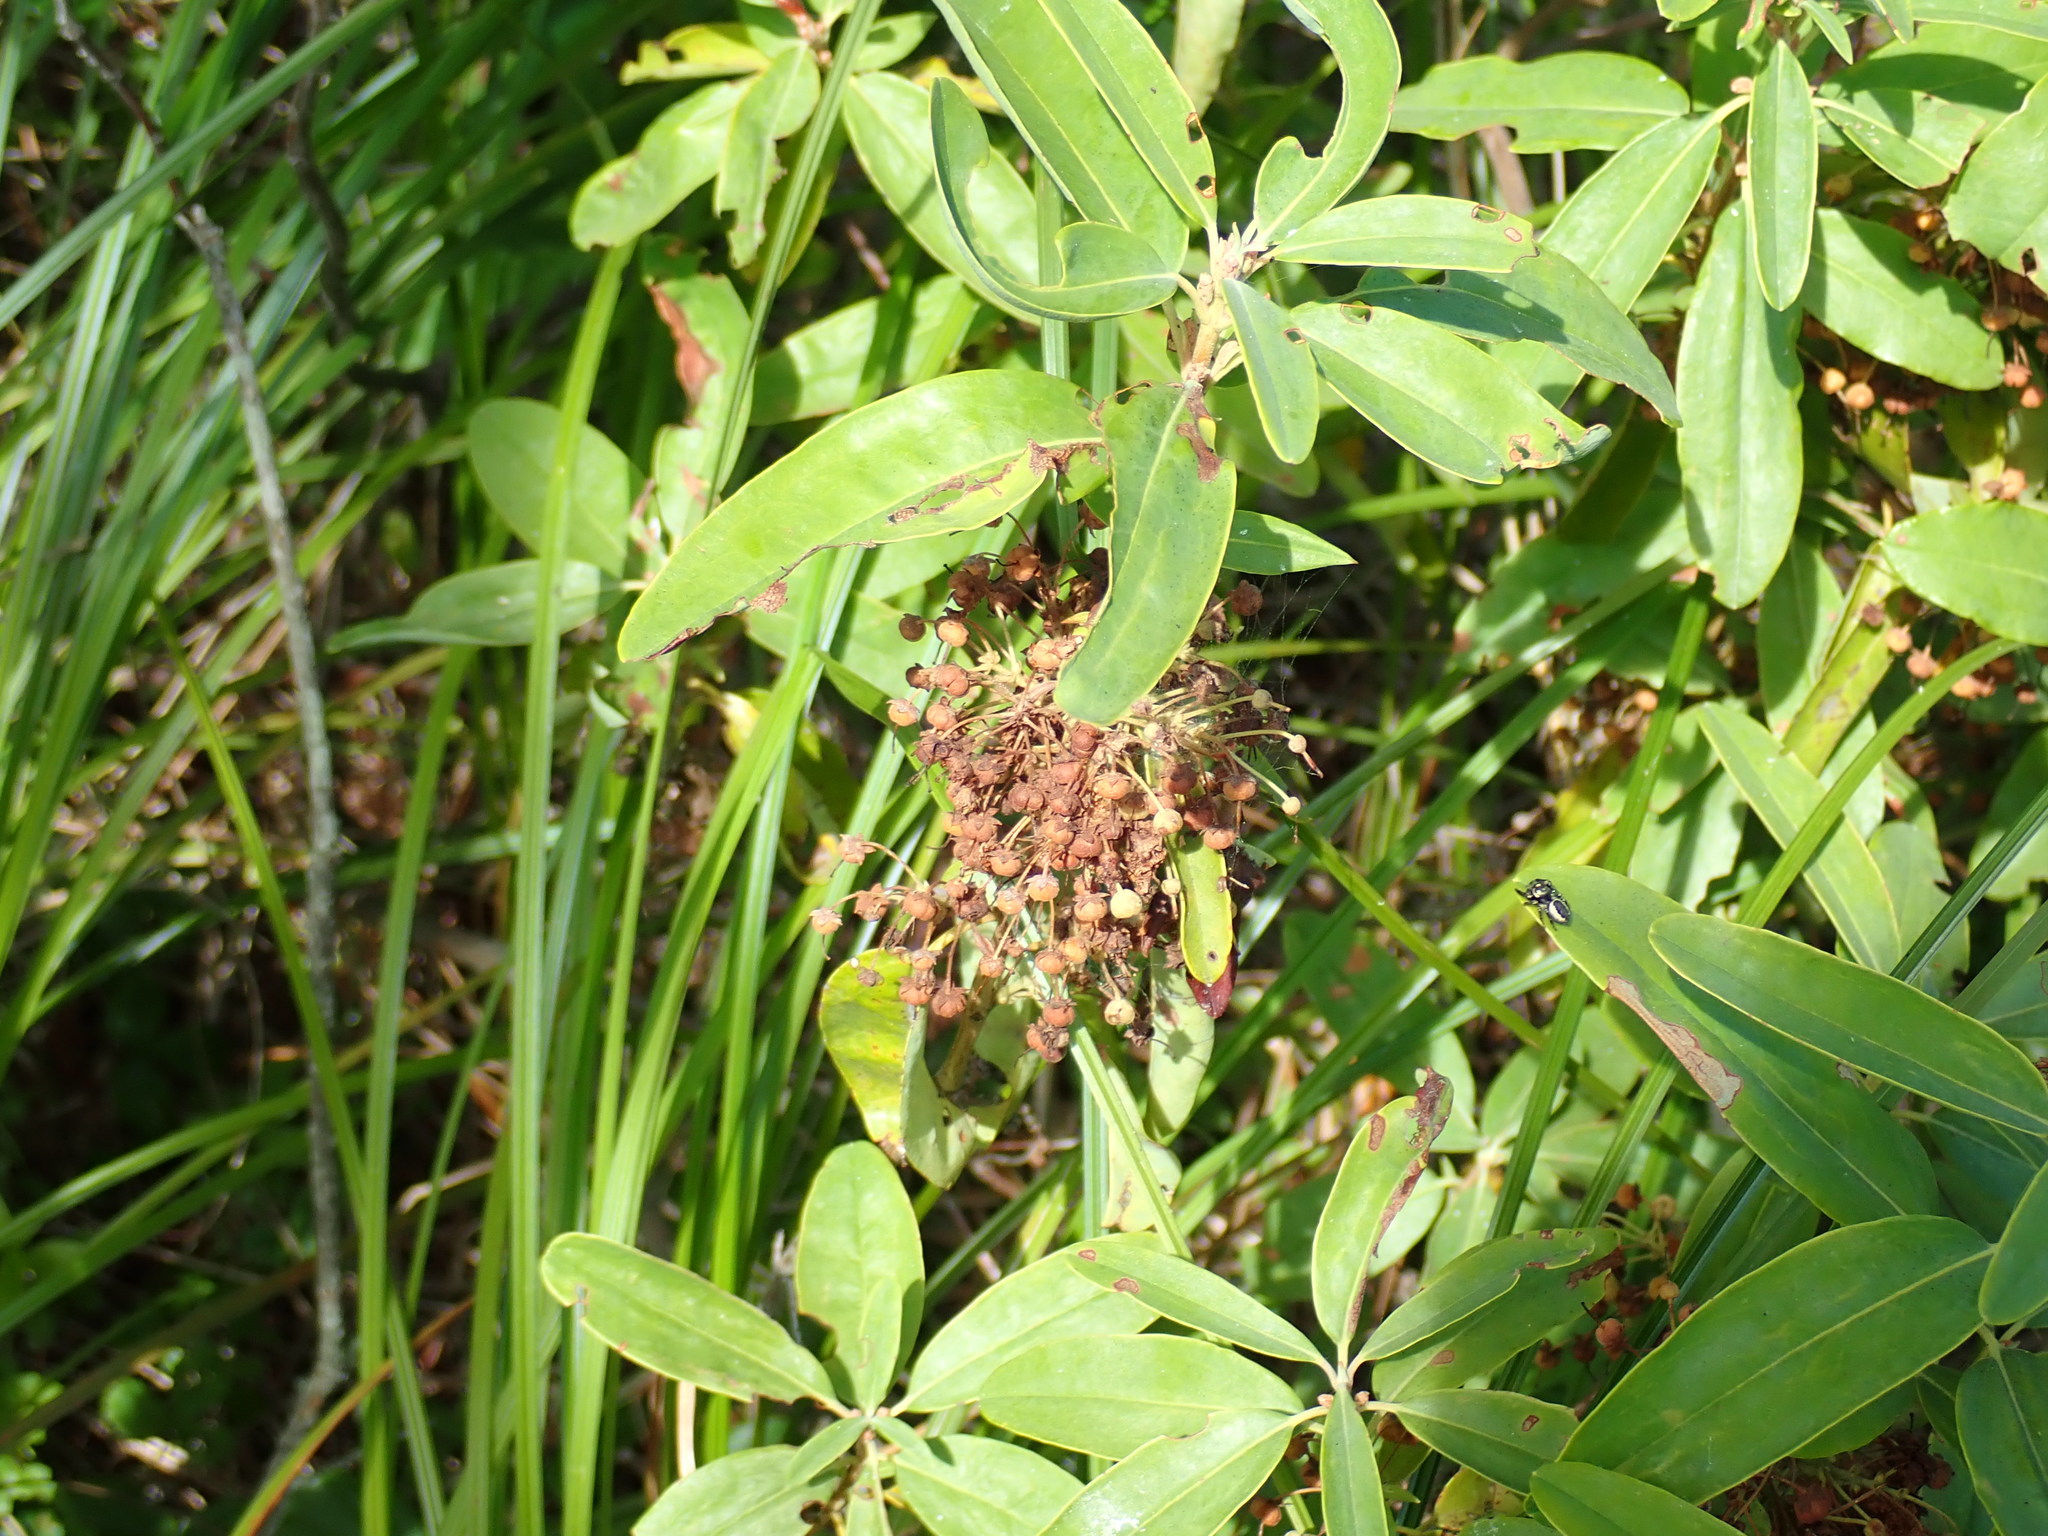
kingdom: Plantae
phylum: Tracheophyta
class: Magnoliopsida
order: Ericales
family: Ericaceae
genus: Kalmia
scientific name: Kalmia angustifolia
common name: Sheep-laurel
